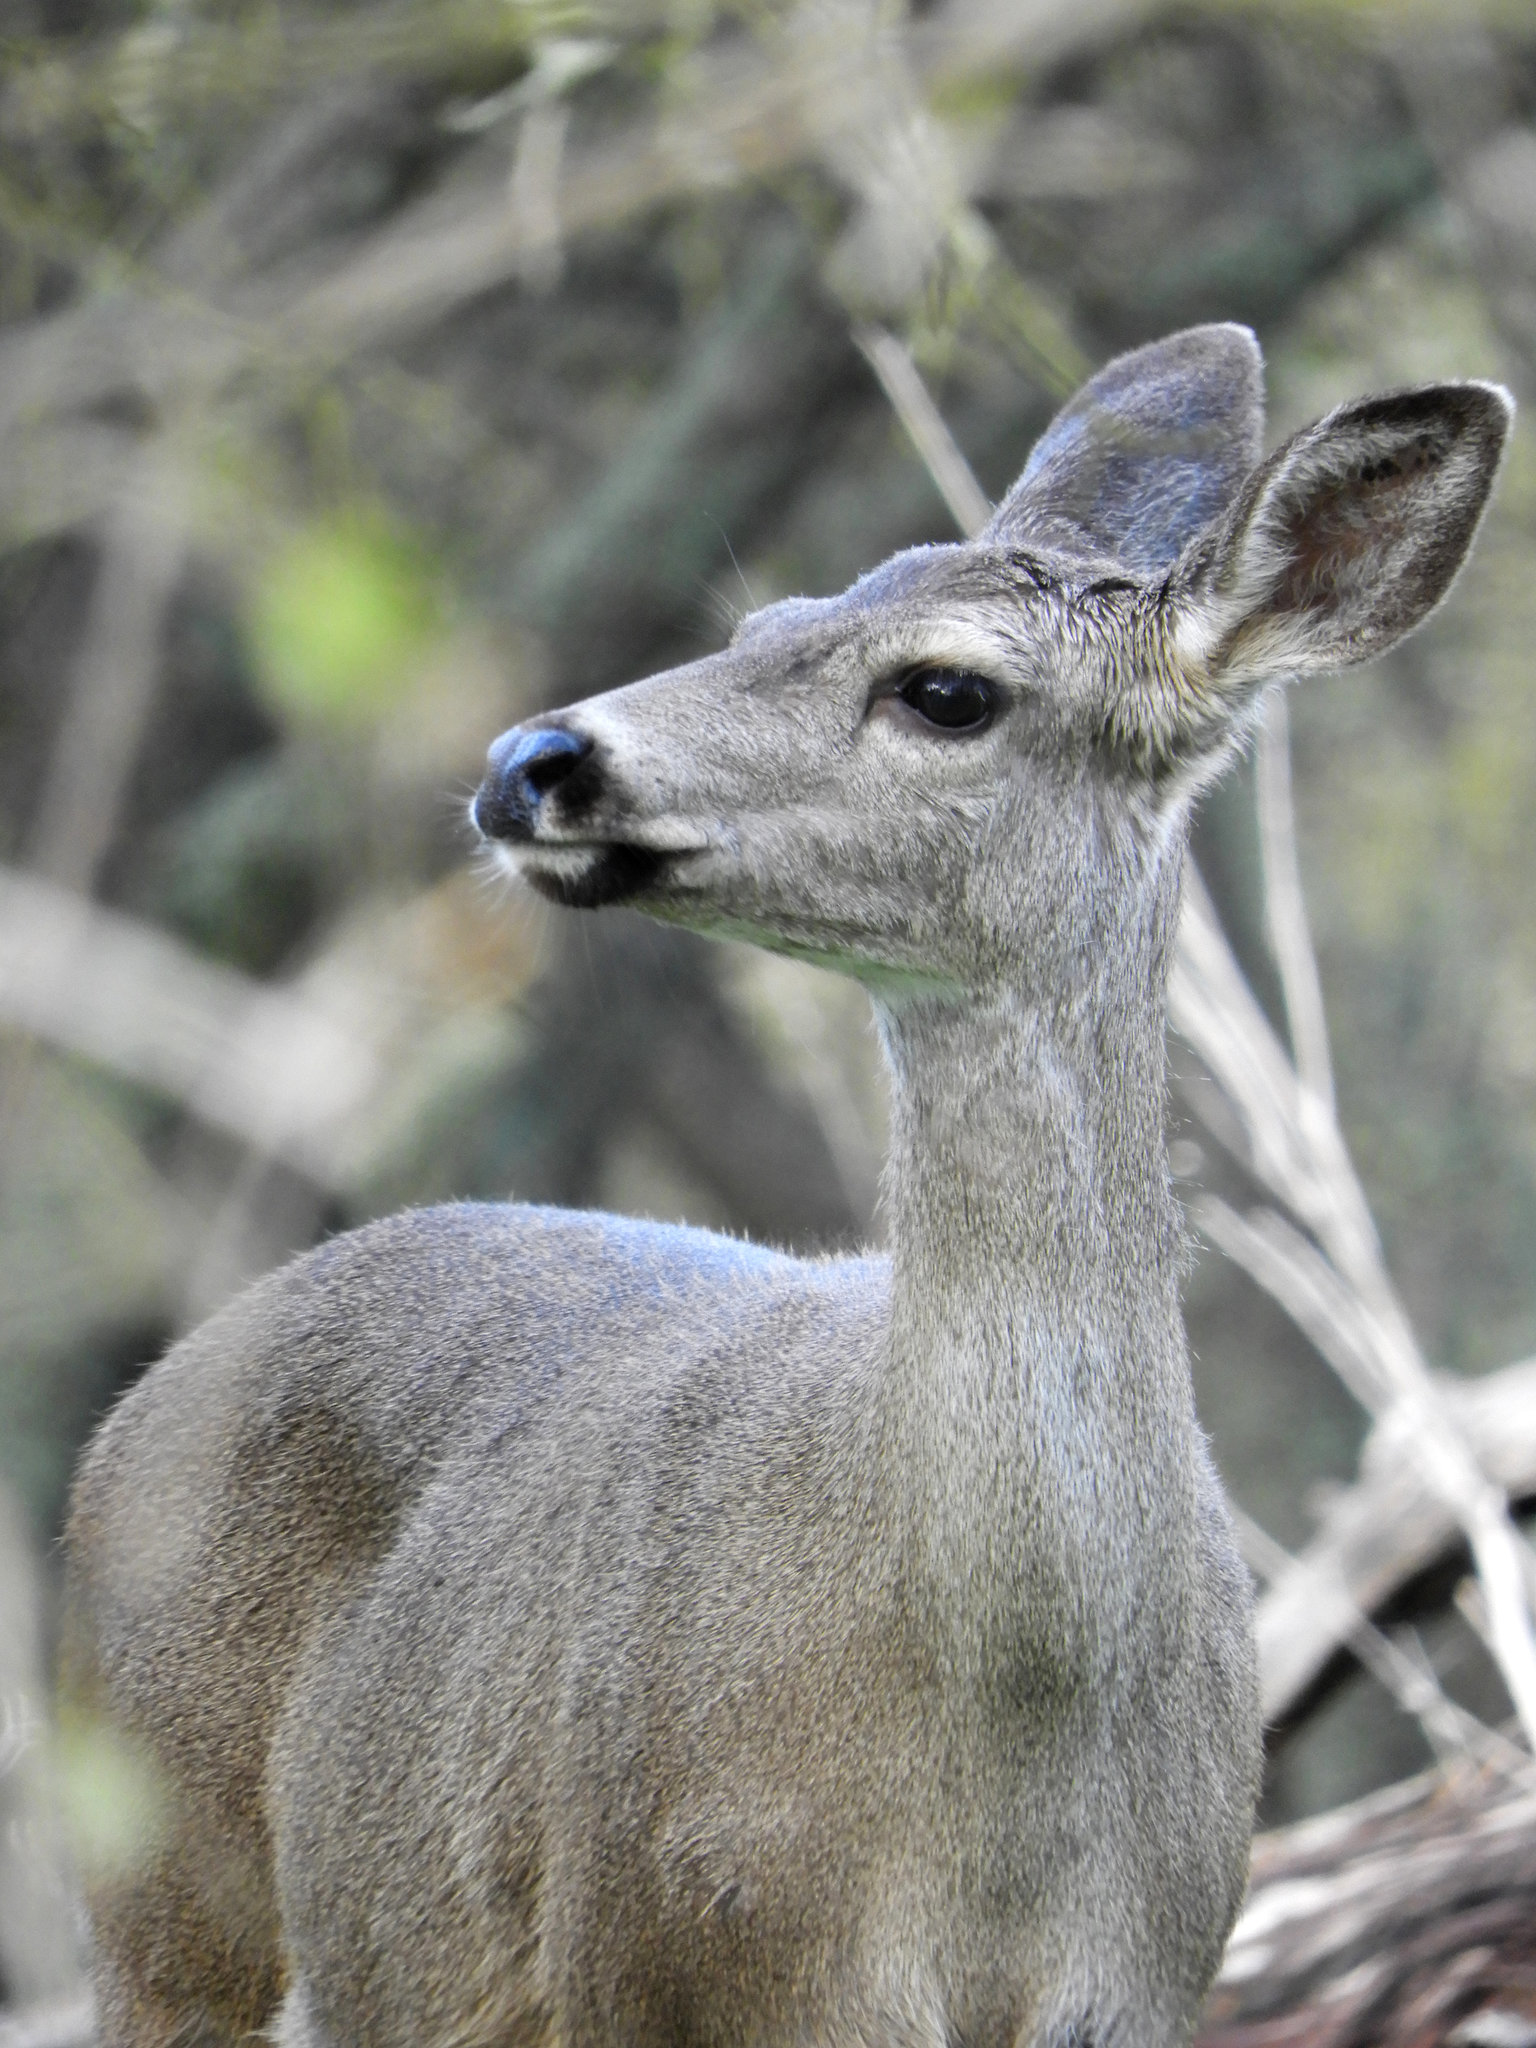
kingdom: Animalia
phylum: Chordata
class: Mammalia
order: Artiodactyla
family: Cervidae
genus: Odocoileus
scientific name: Odocoileus hemionus
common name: Mule deer
